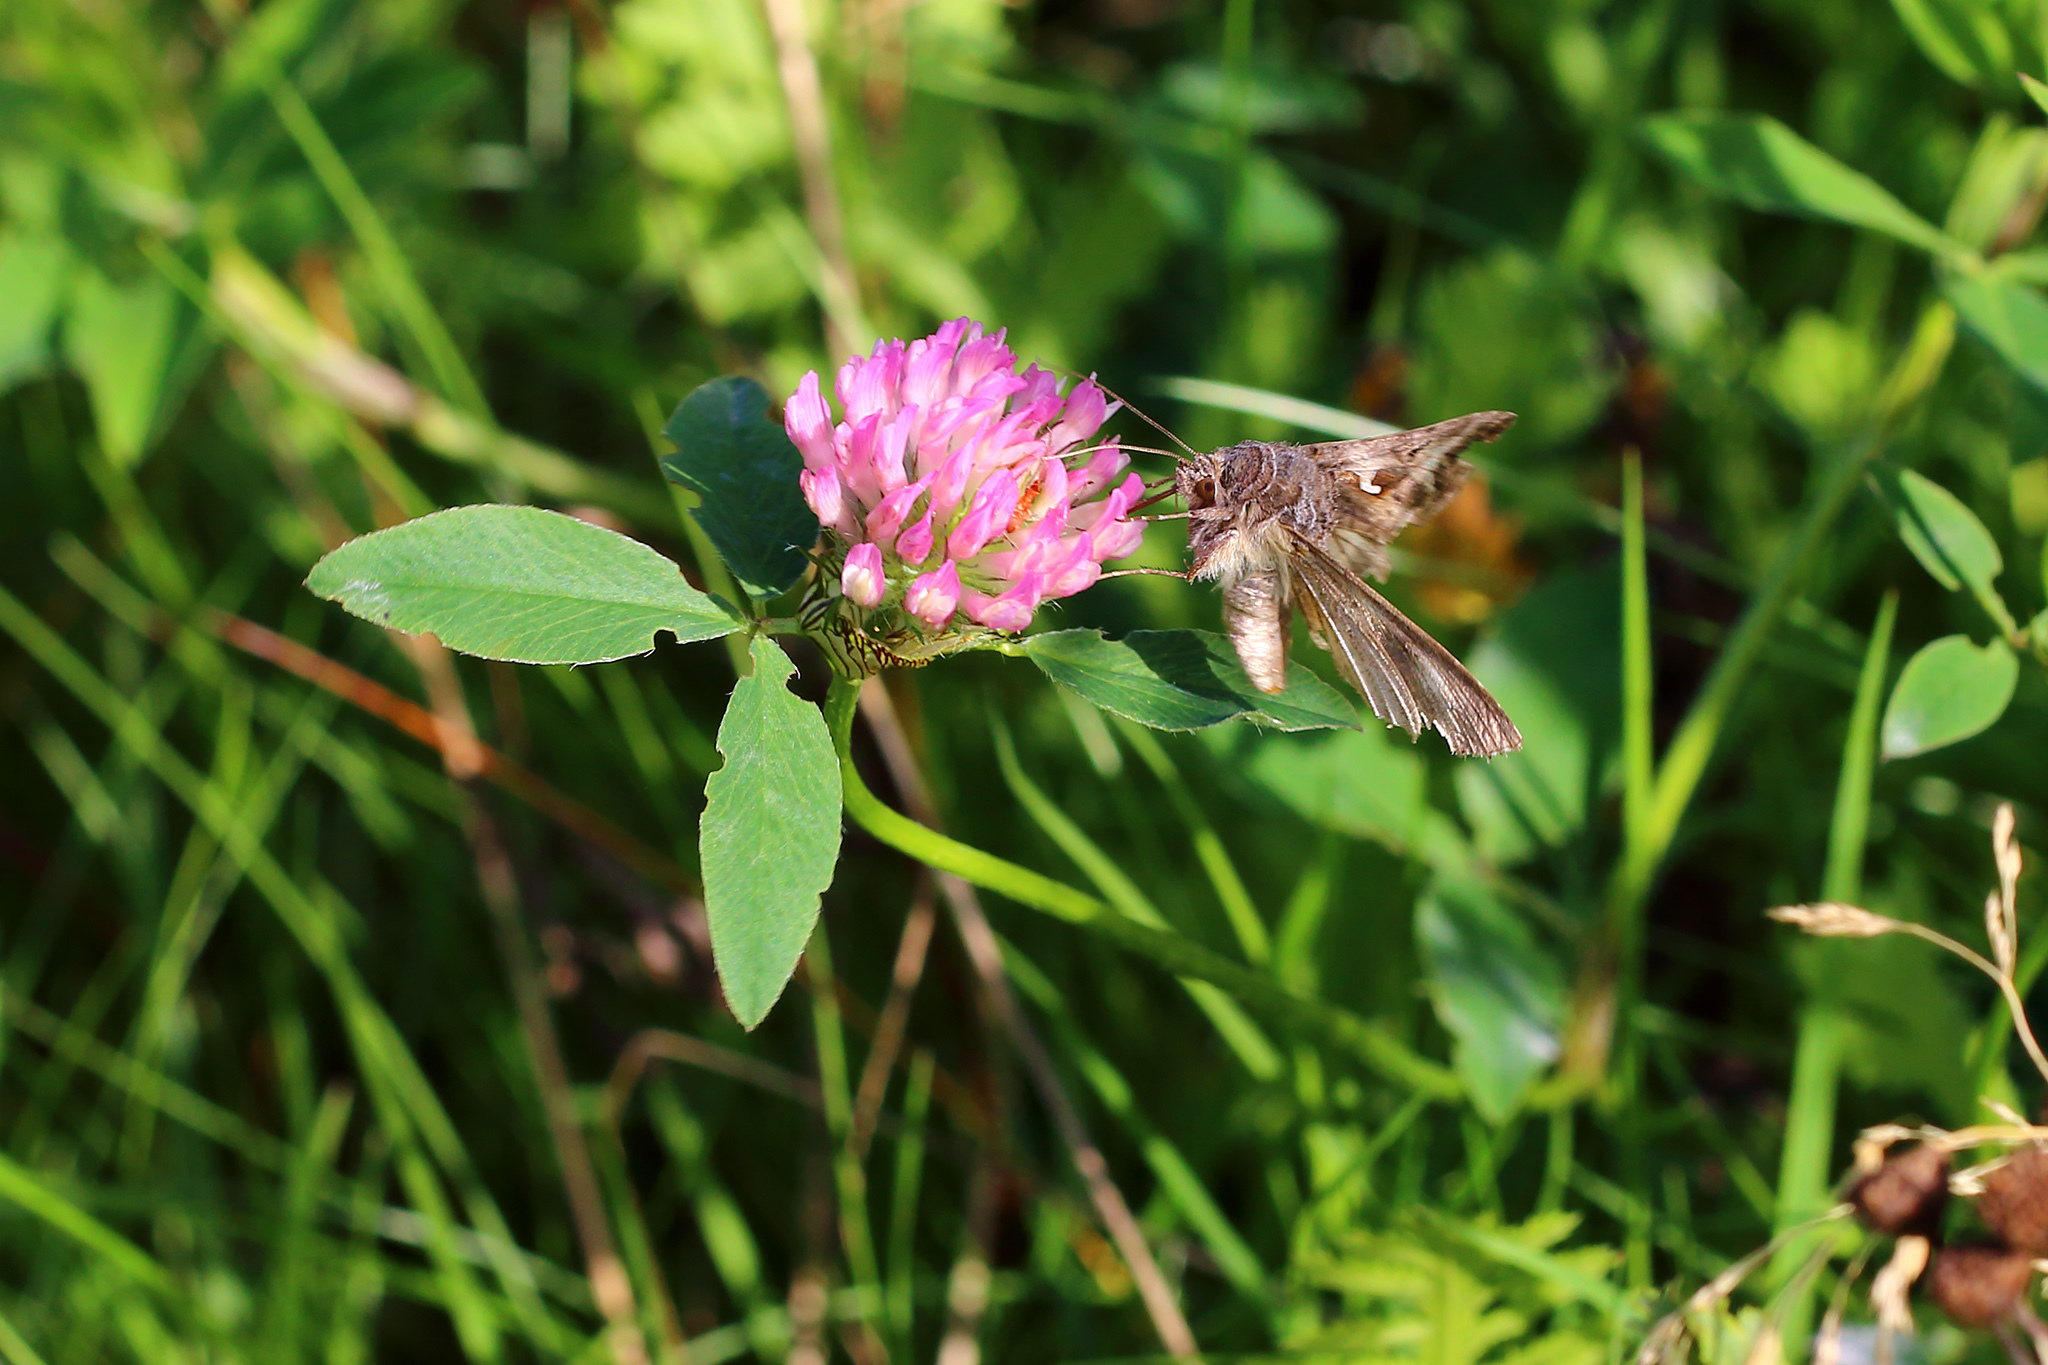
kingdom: Animalia
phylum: Arthropoda
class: Insecta
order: Lepidoptera
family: Noctuidae
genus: Autographa
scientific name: Autographa gamma
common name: Silver y
